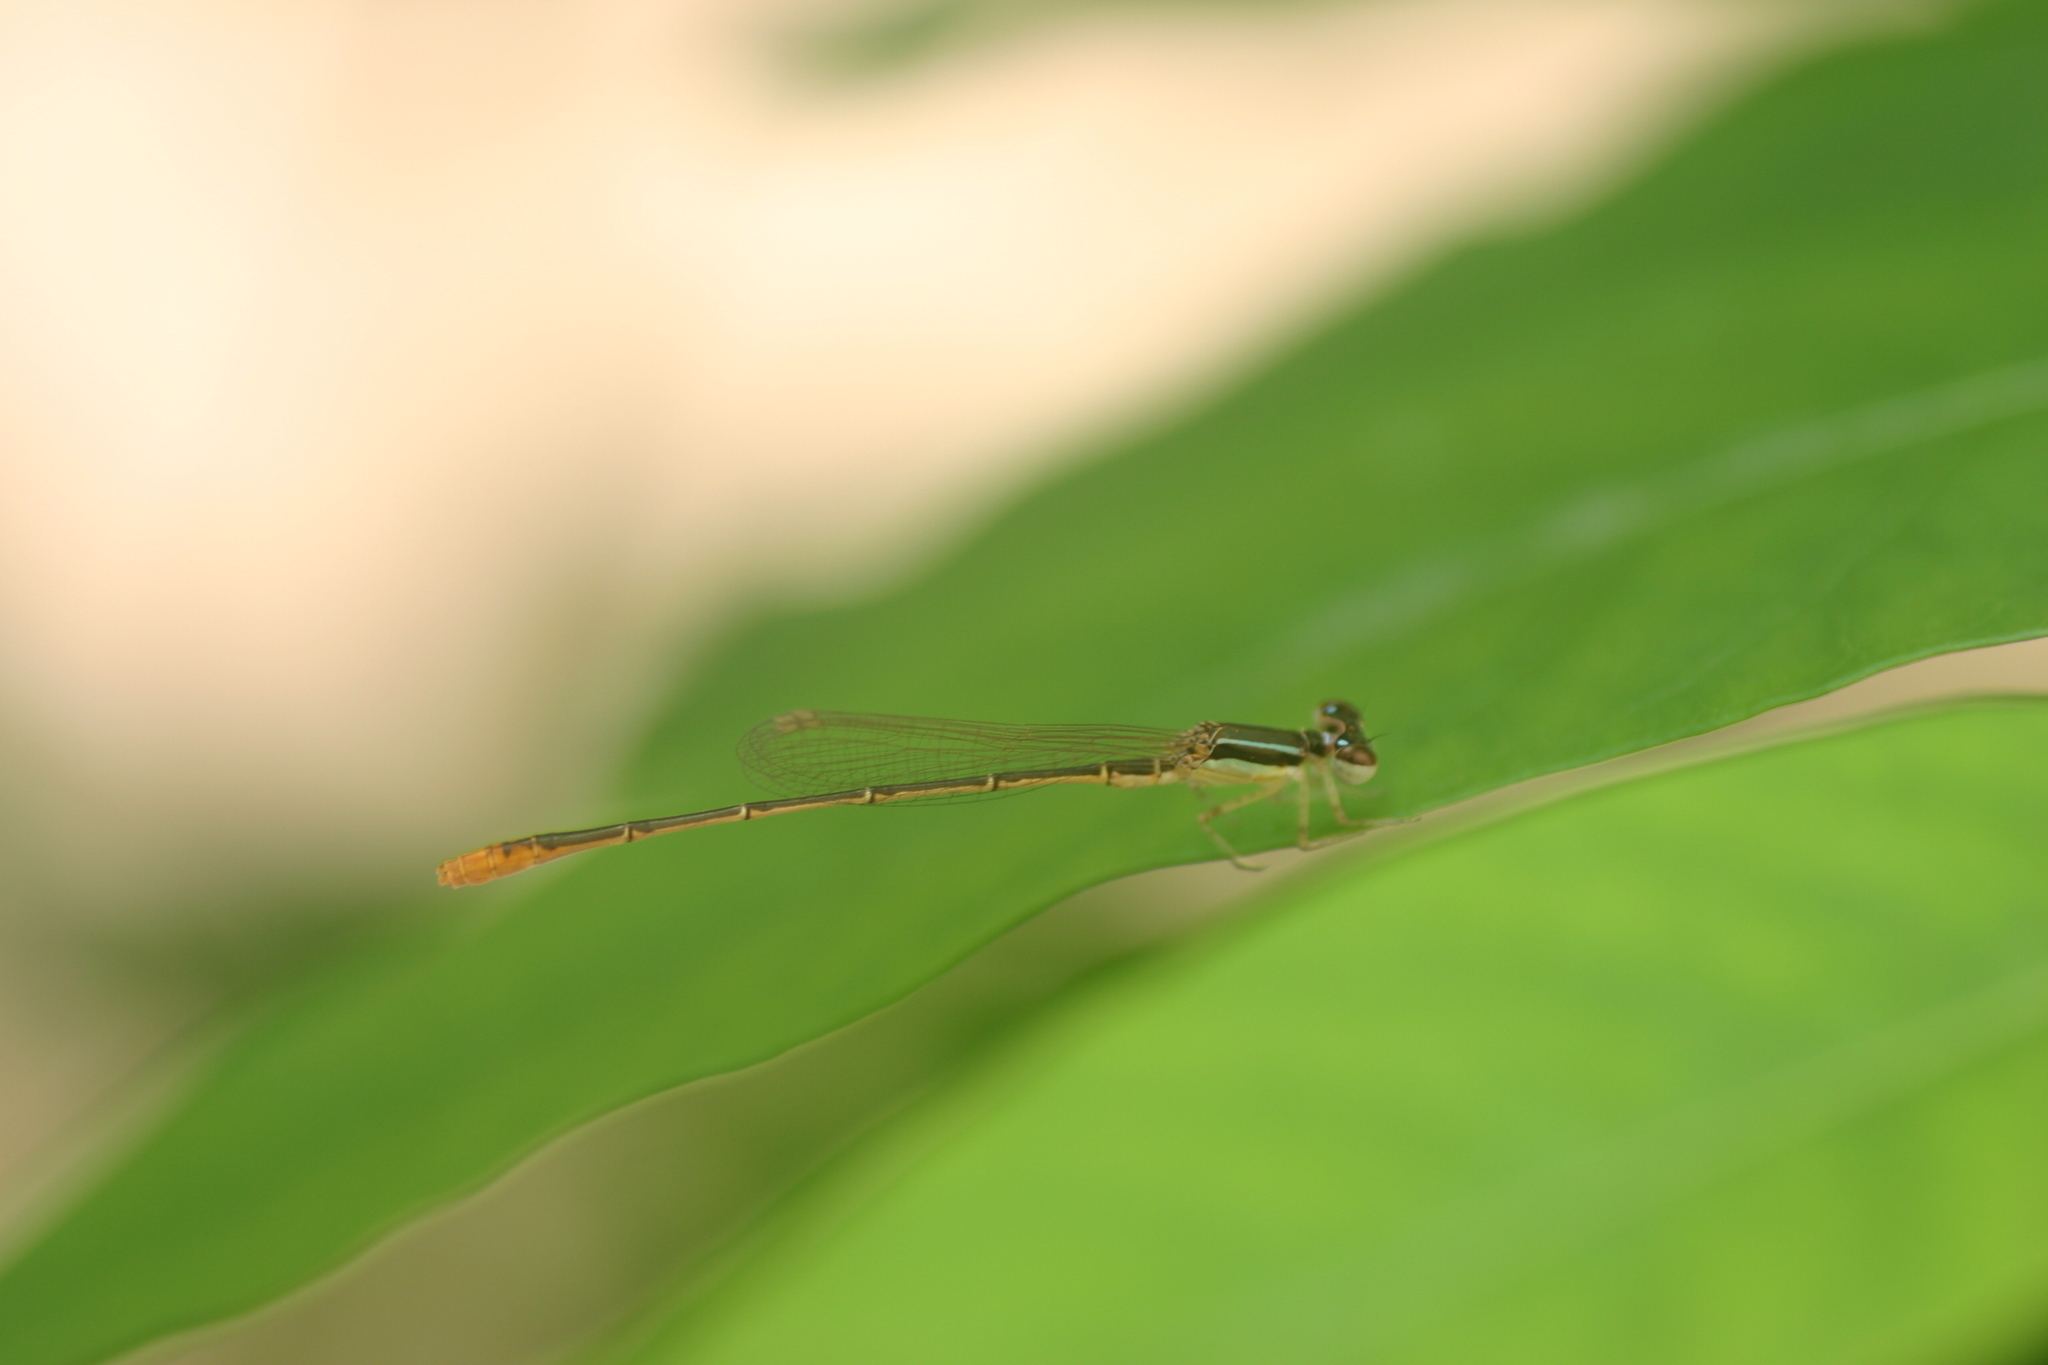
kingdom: Animalia
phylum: Arthropoda
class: Insecta
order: Odonata
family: Coenagrionidae
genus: Agriocnemis
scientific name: Agriocnemis pygmaea
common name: Pygmy wisp
